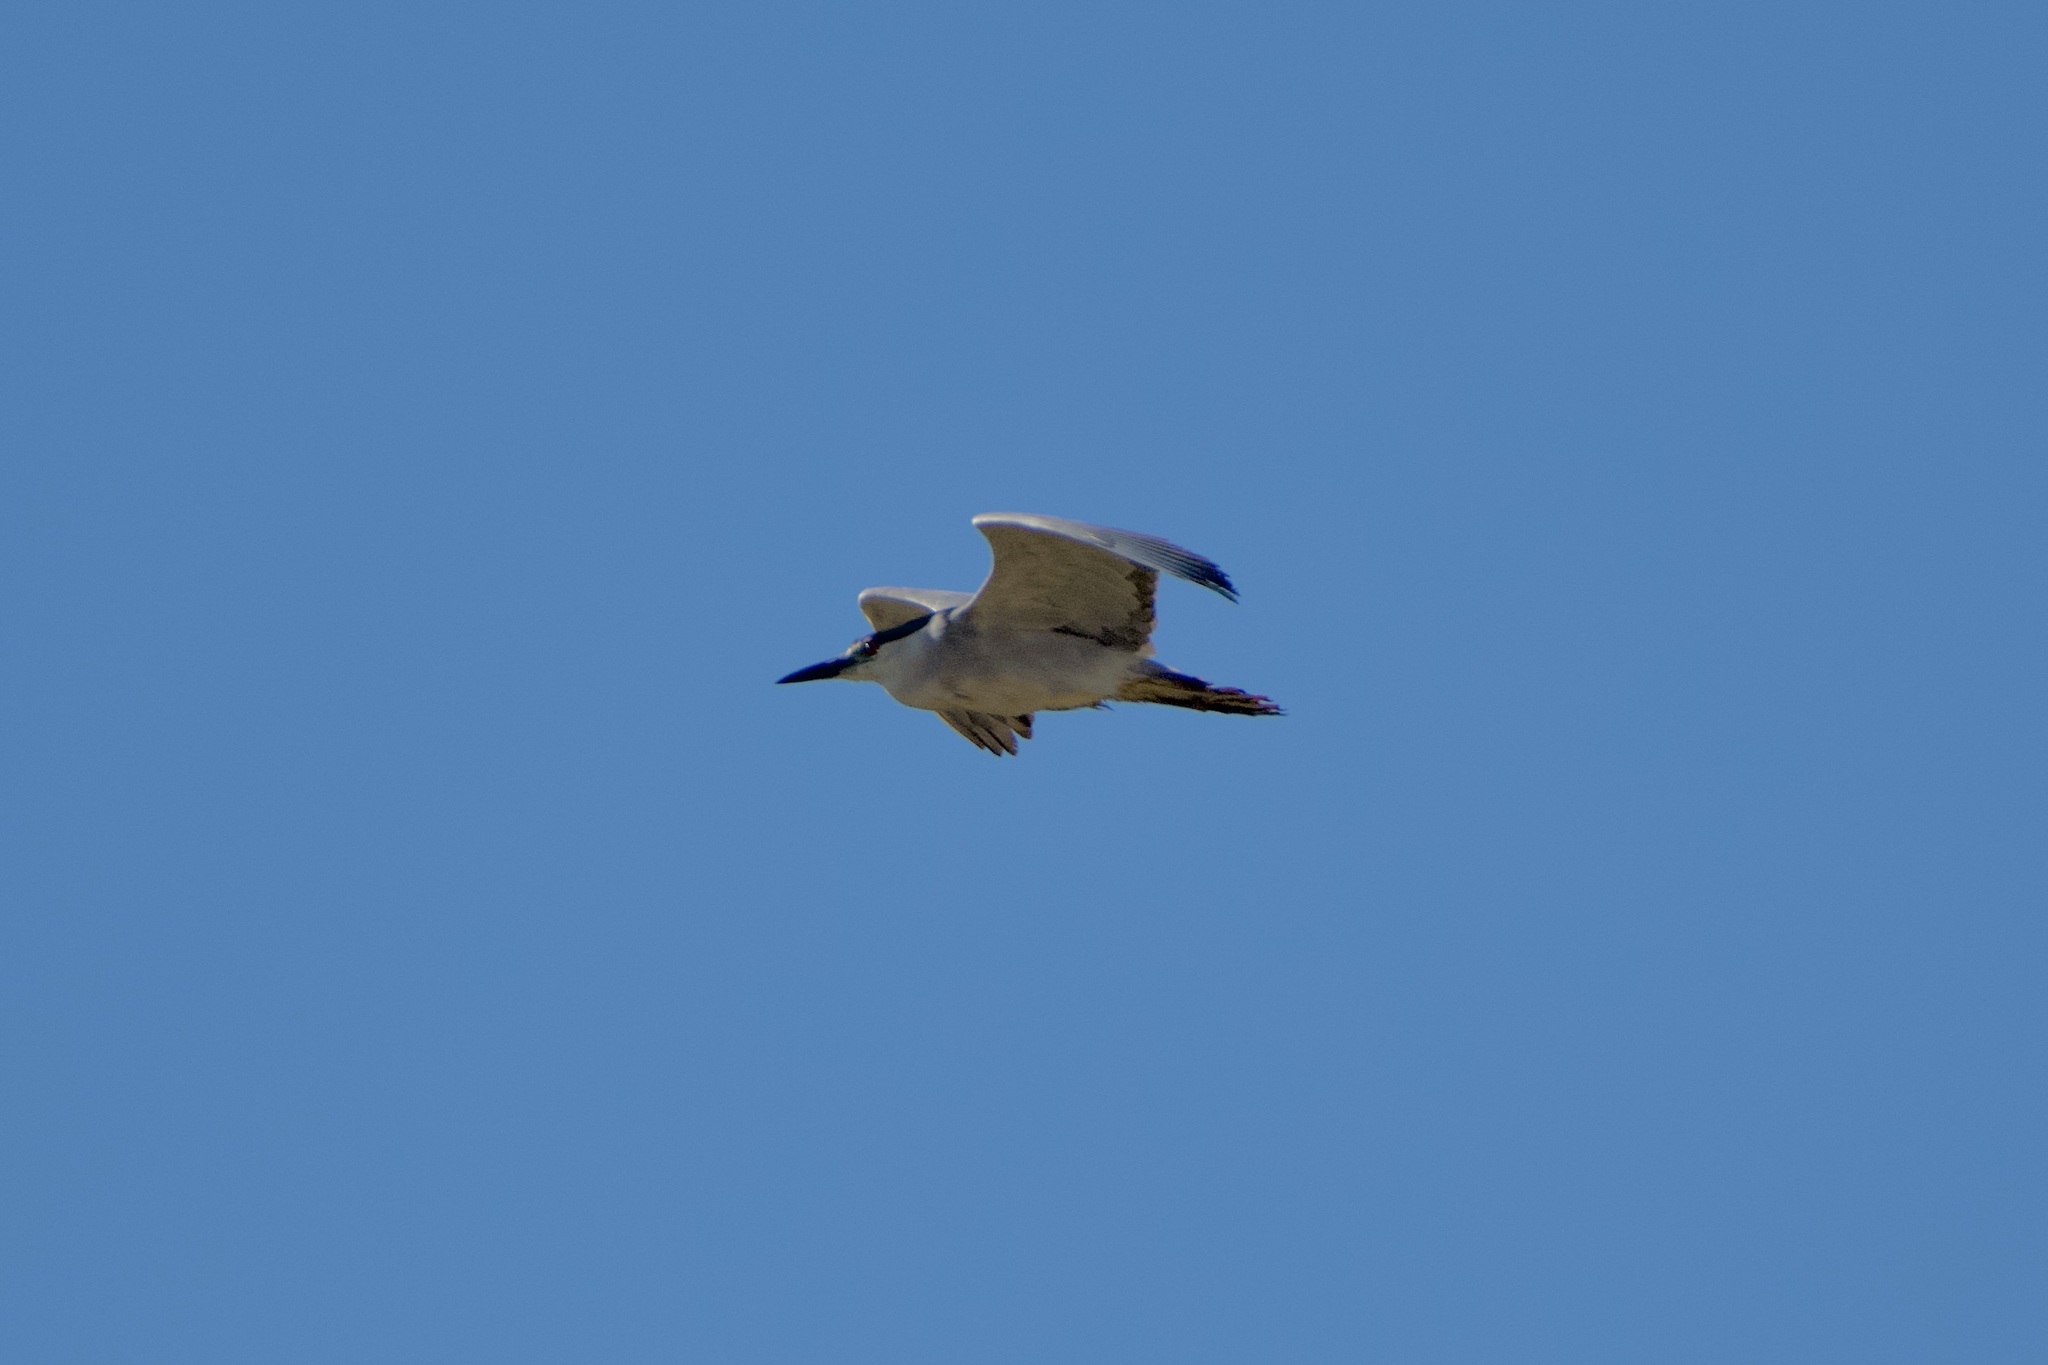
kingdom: Animalia
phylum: Chordata
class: Aves
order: Pelecaniformes
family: Ardeidae
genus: Nycticorax
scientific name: Nycticorax nycticorax
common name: Black-crowned night heron
